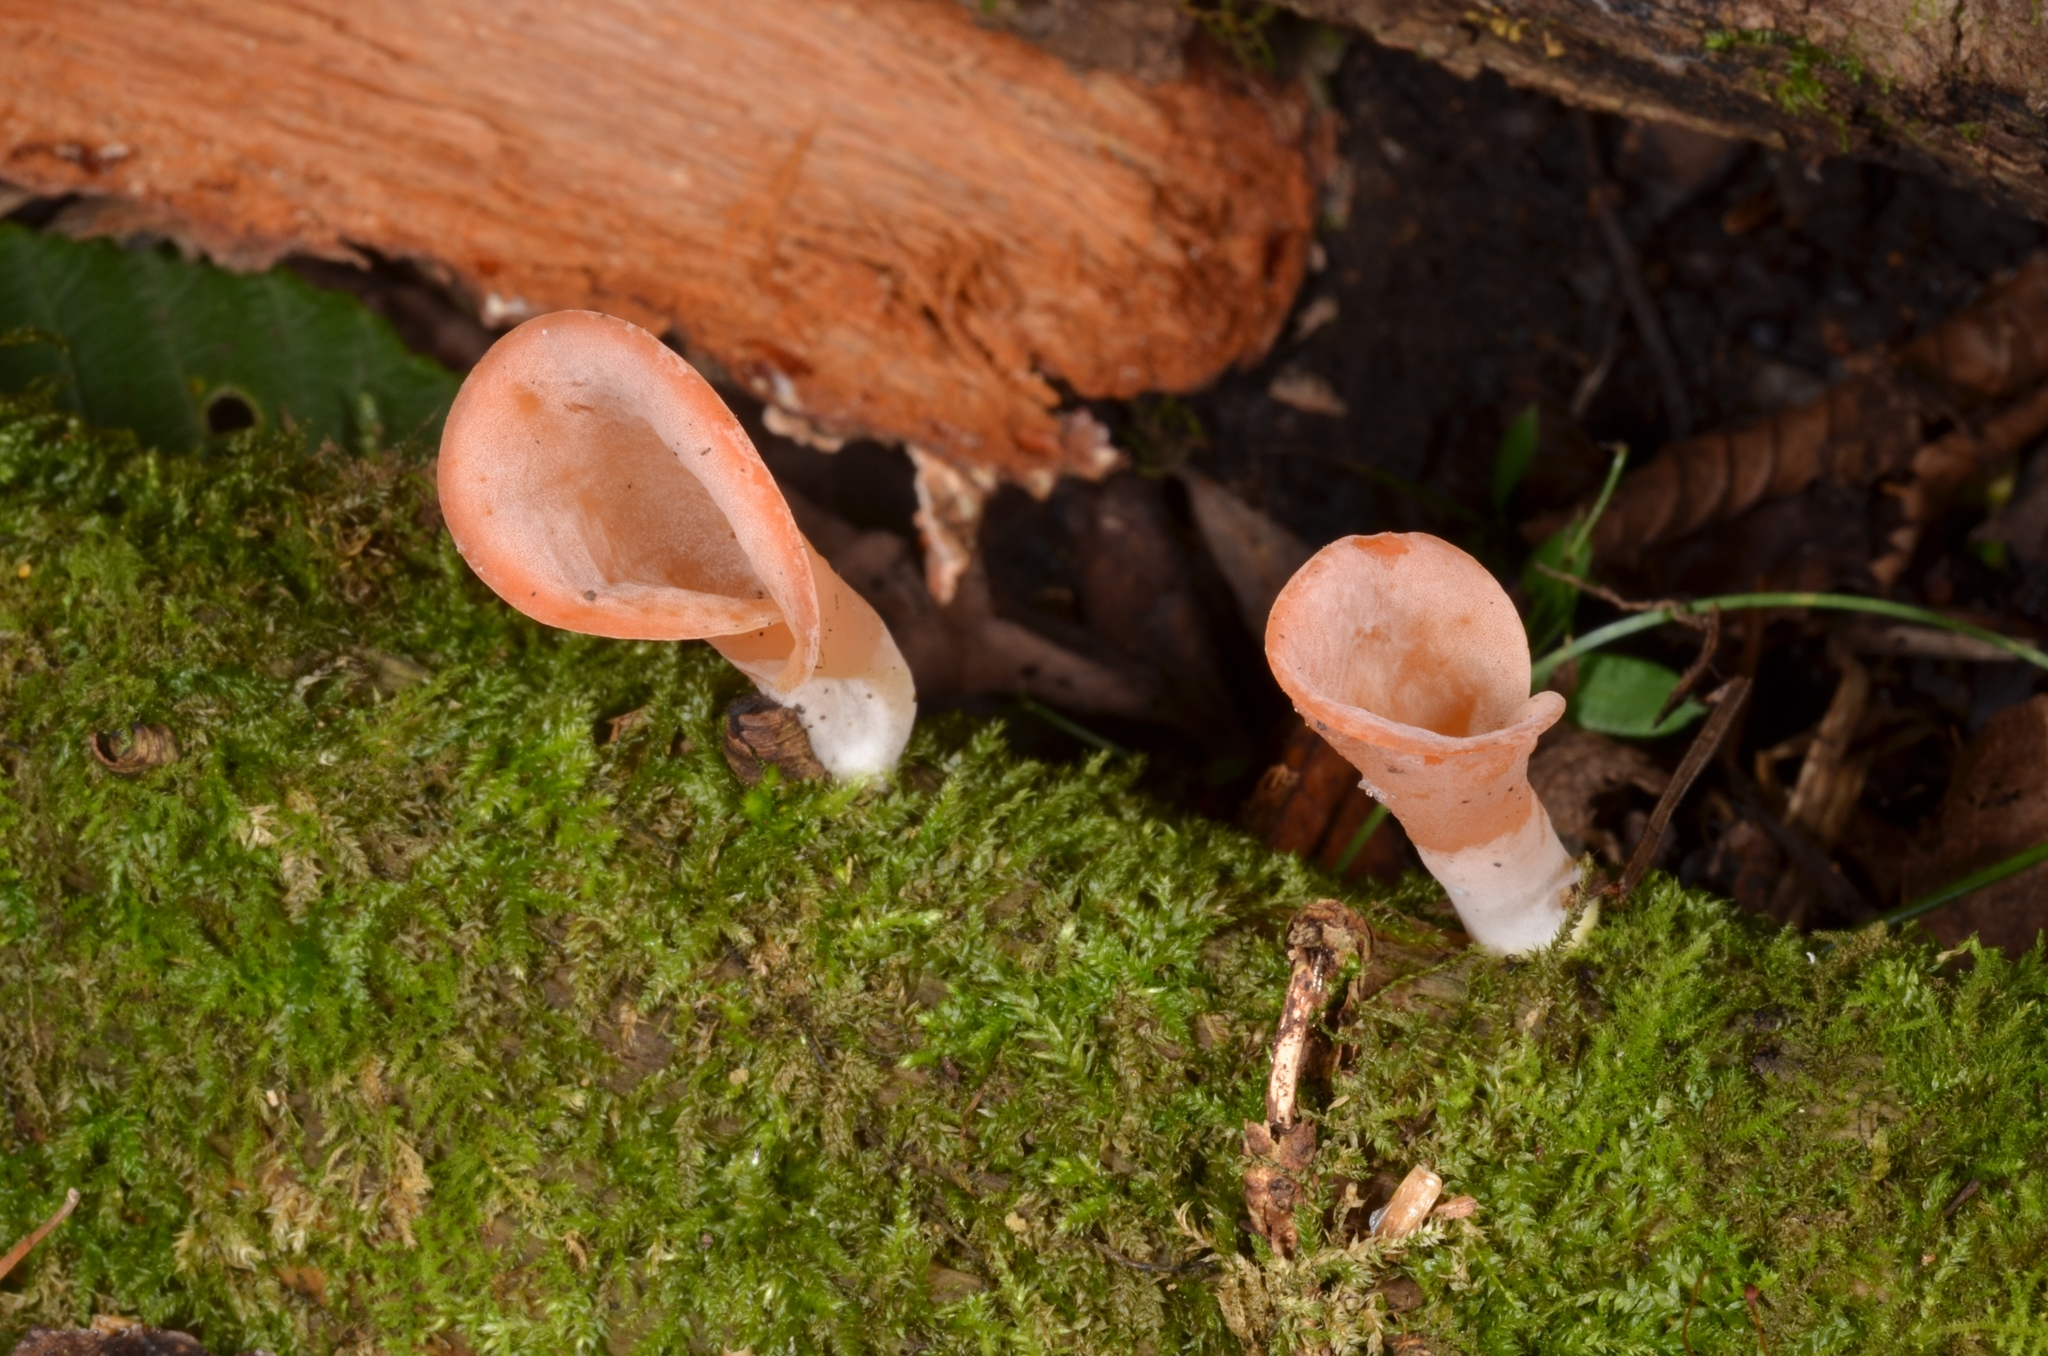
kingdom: Fungi
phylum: Basidiomycota
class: Agaricomycetes
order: Auriculariales
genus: Guepinia
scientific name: Guepinia helvelloides
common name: Salmon salad
